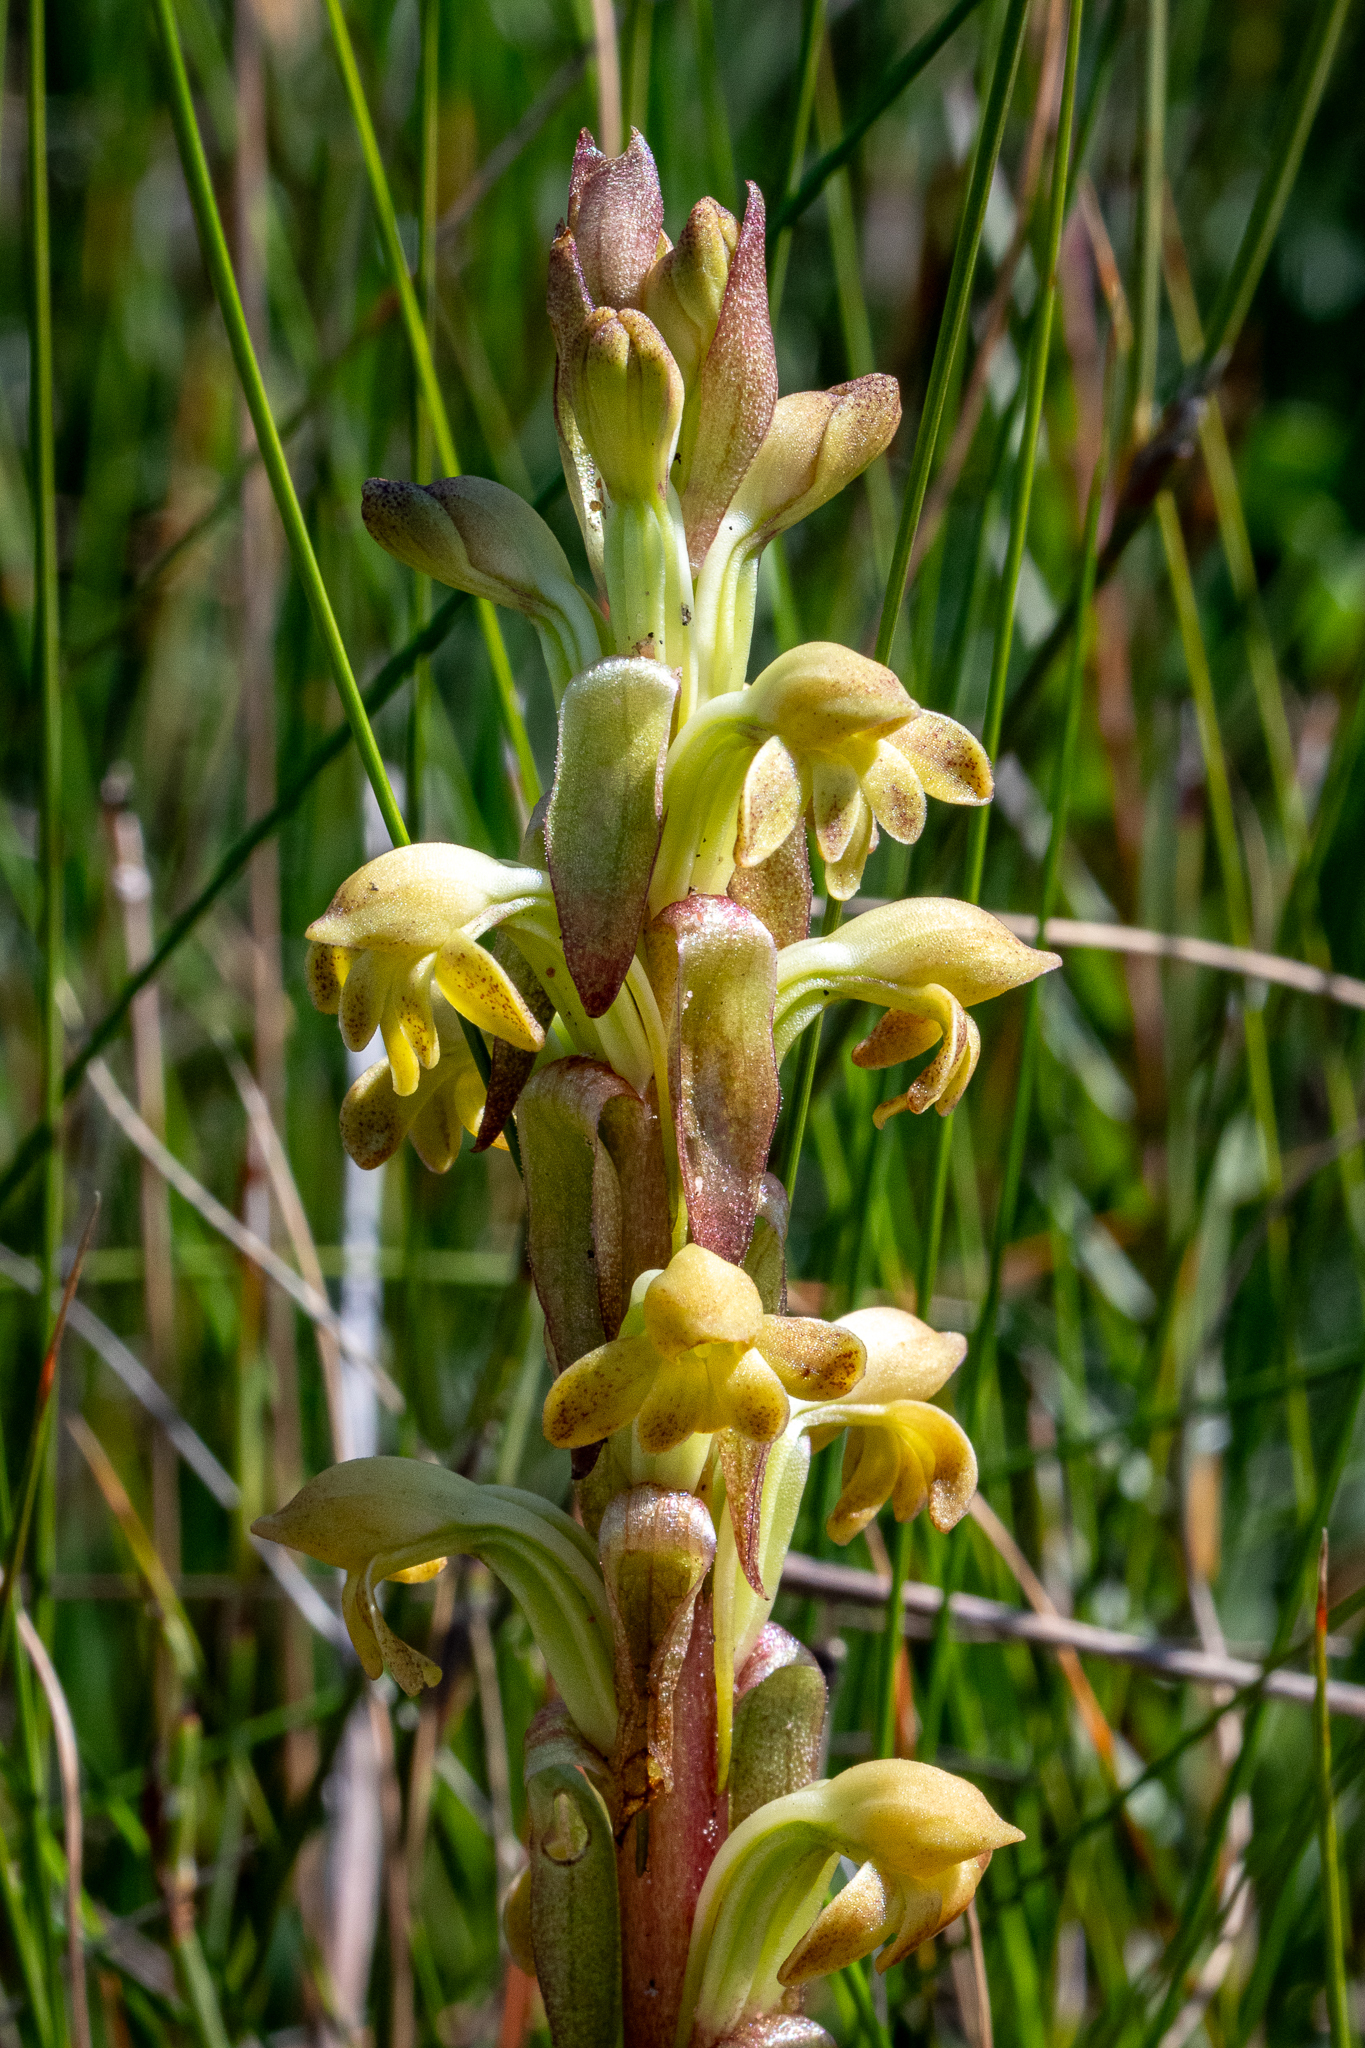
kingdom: Plantae
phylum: Tracheophyta
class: Liliopsida
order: Asparagales
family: Orchidaceae
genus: Satyrium
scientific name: Satyrium bicorne
